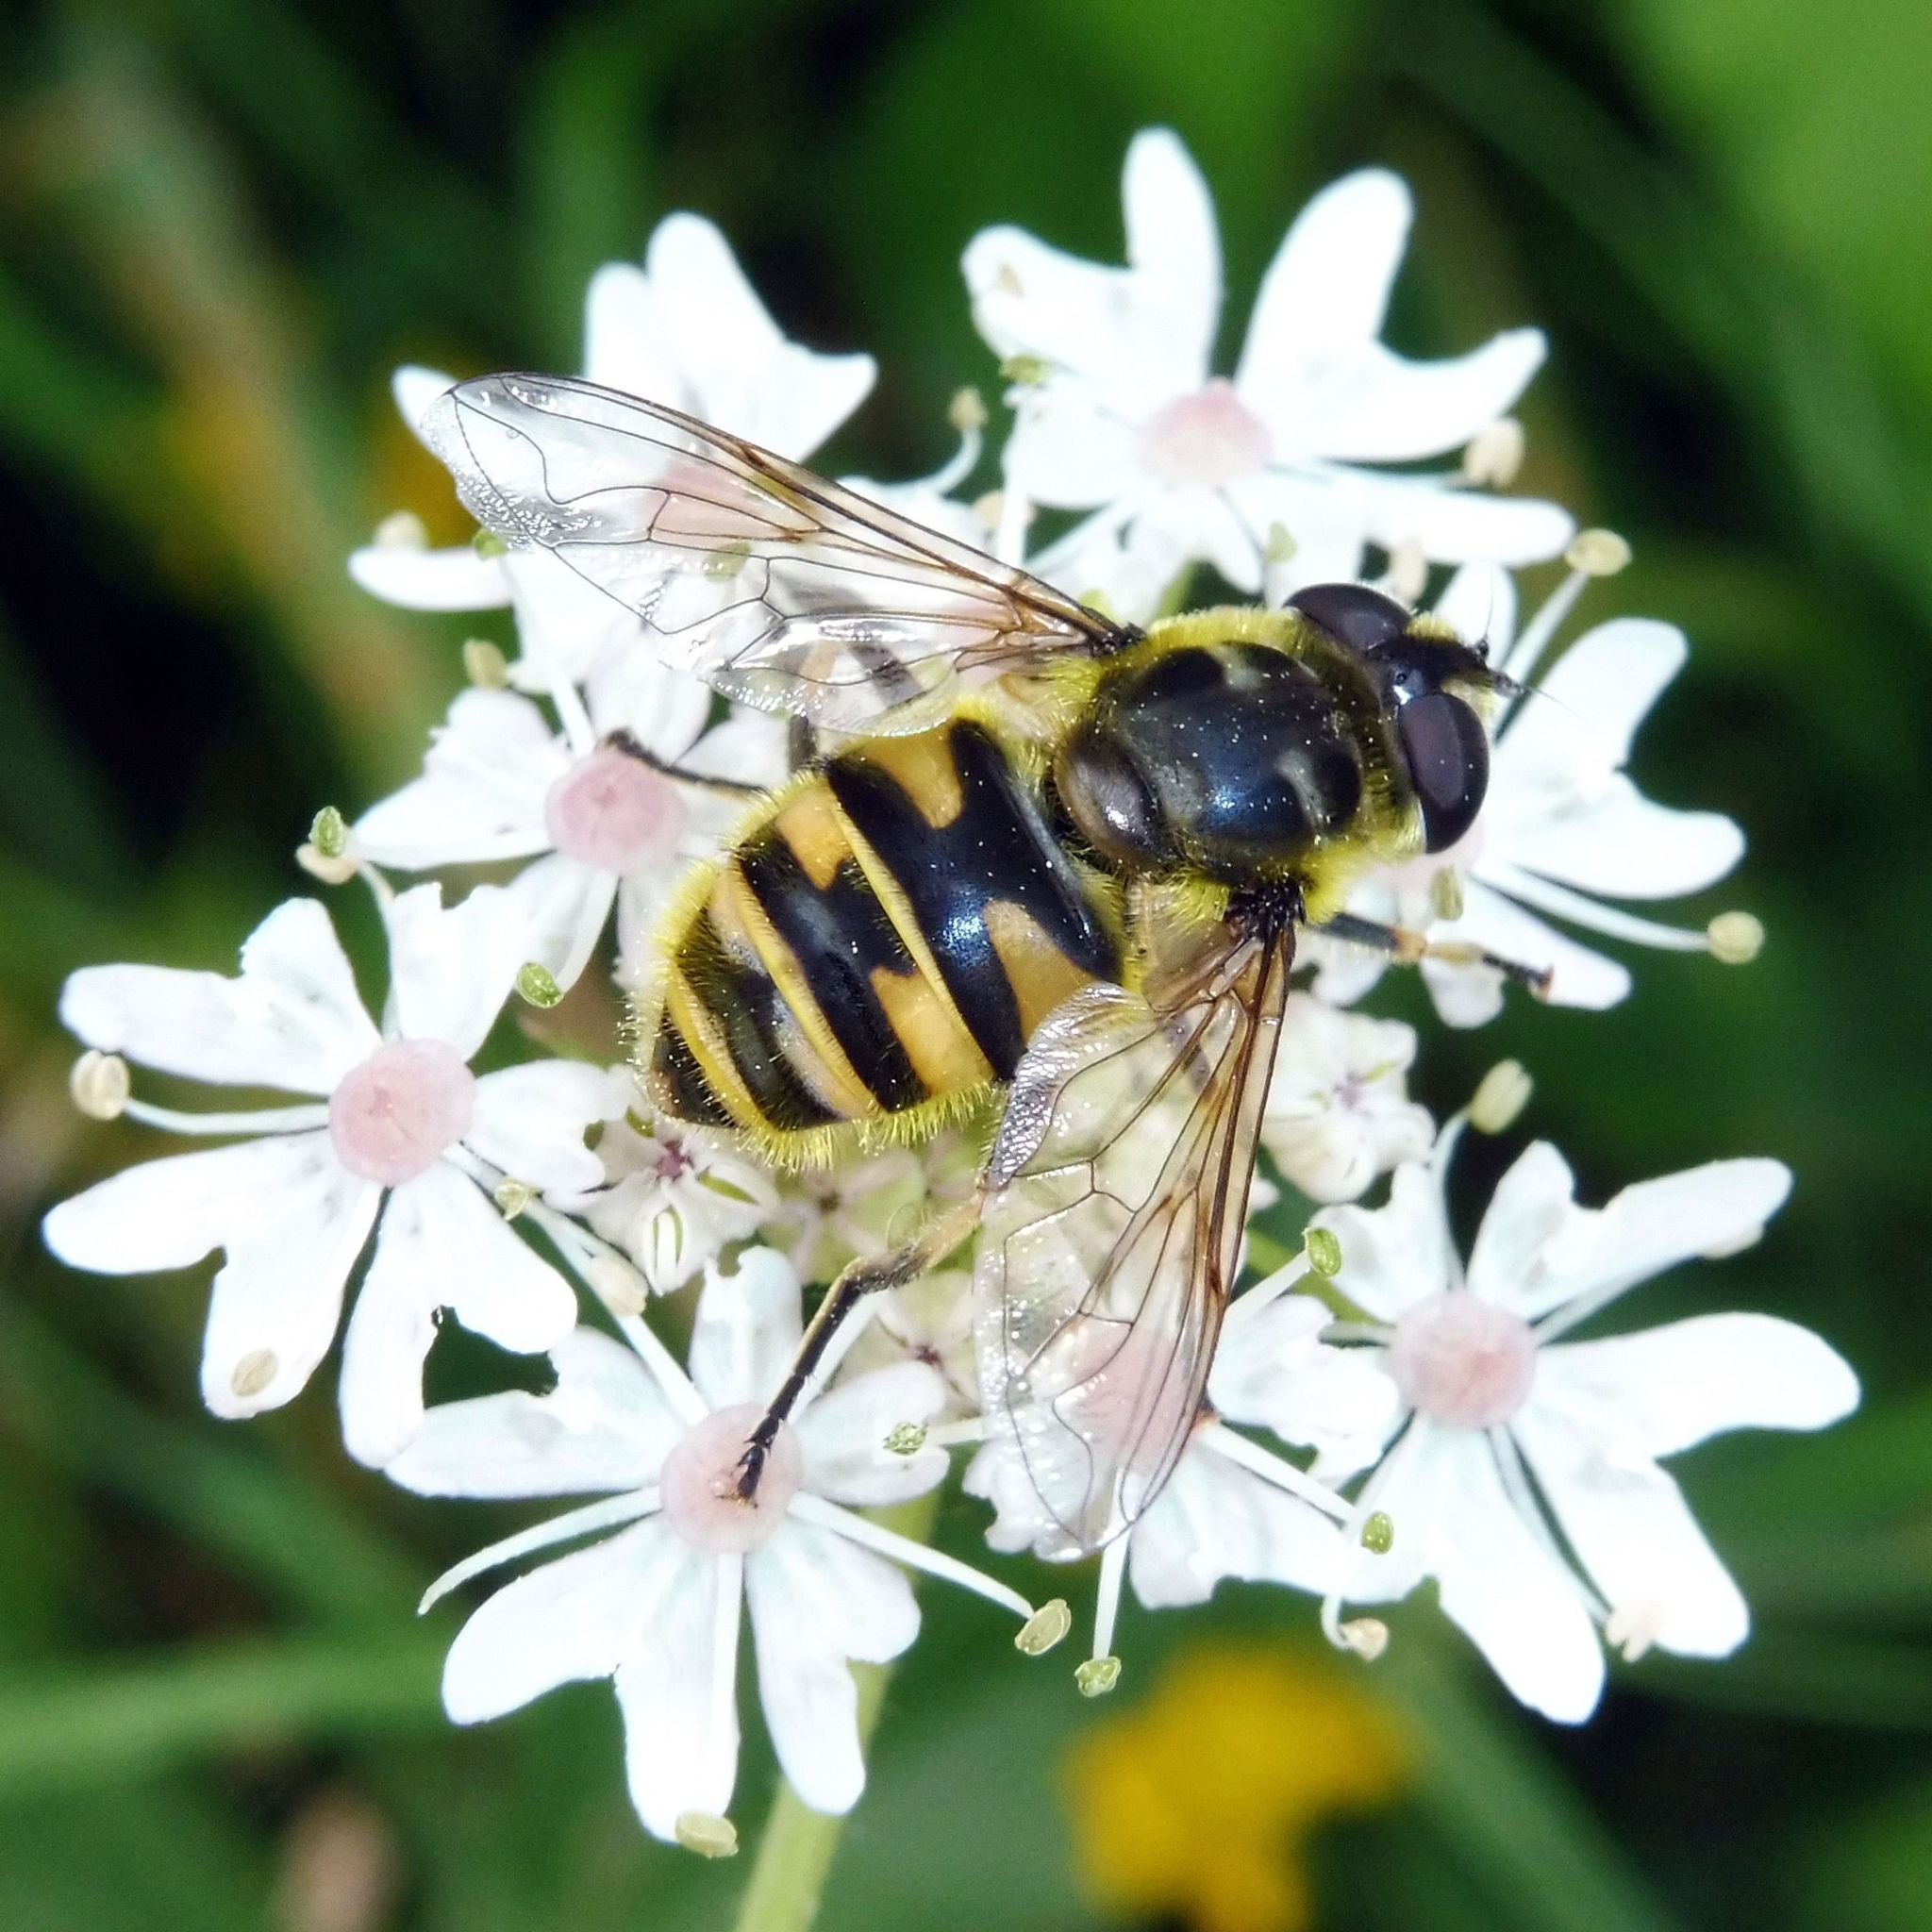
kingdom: Animalia
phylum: Arthropoda
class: Insecta
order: Diptera
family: Syrphidae
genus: Myathropa
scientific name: Myathropa florea
